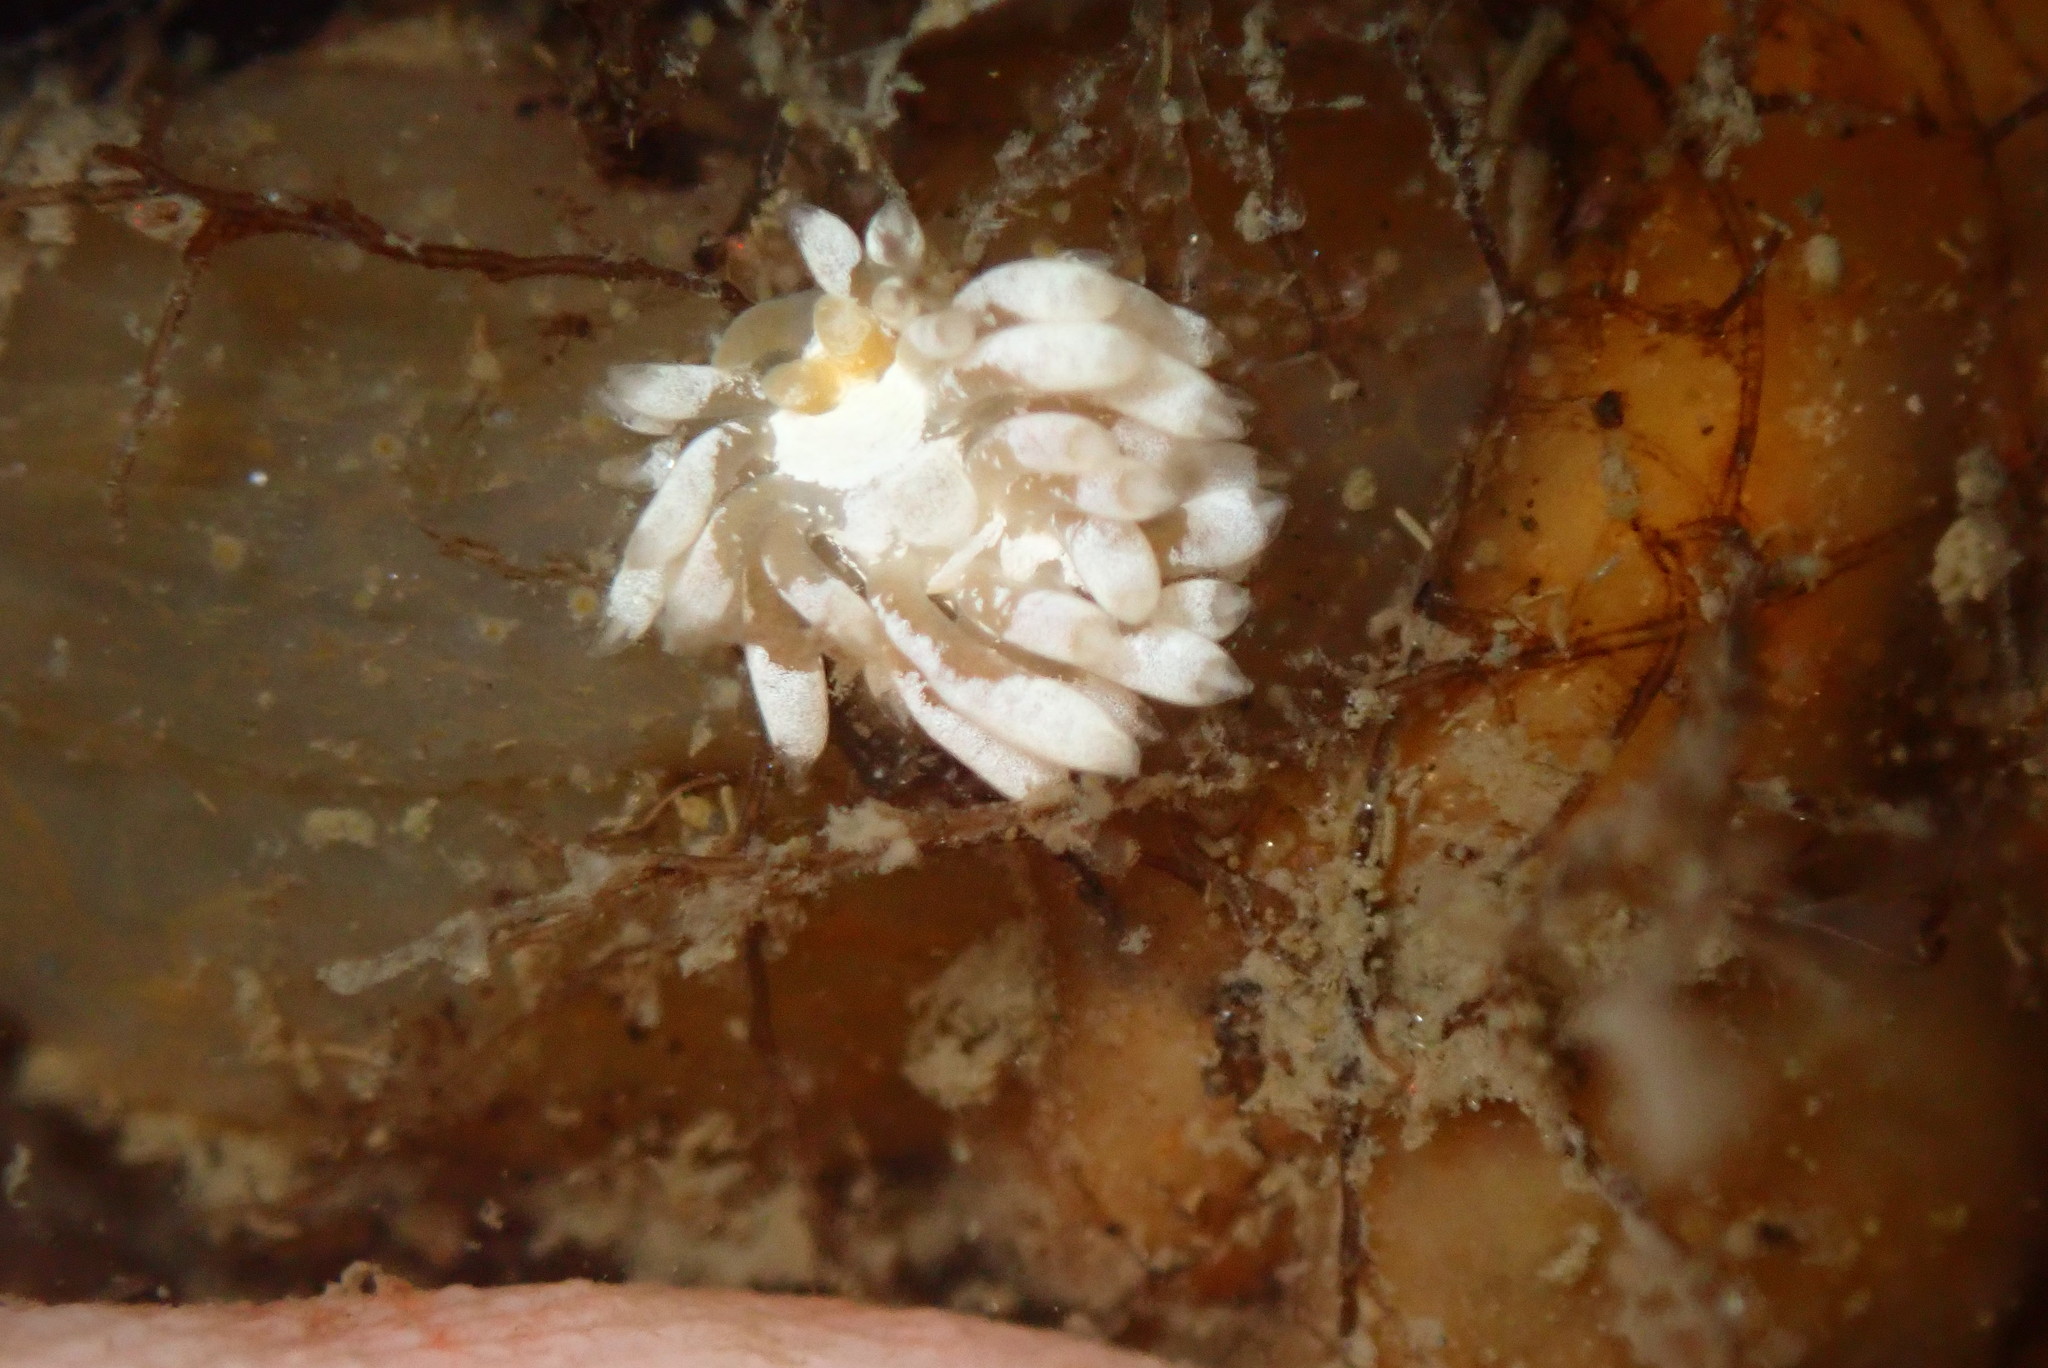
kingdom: Animalia
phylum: Mollusca
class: Gastropoda
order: Nudibranchia
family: Trinchesiidae
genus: Trinchesia
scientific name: Trinchesia albocrusta
